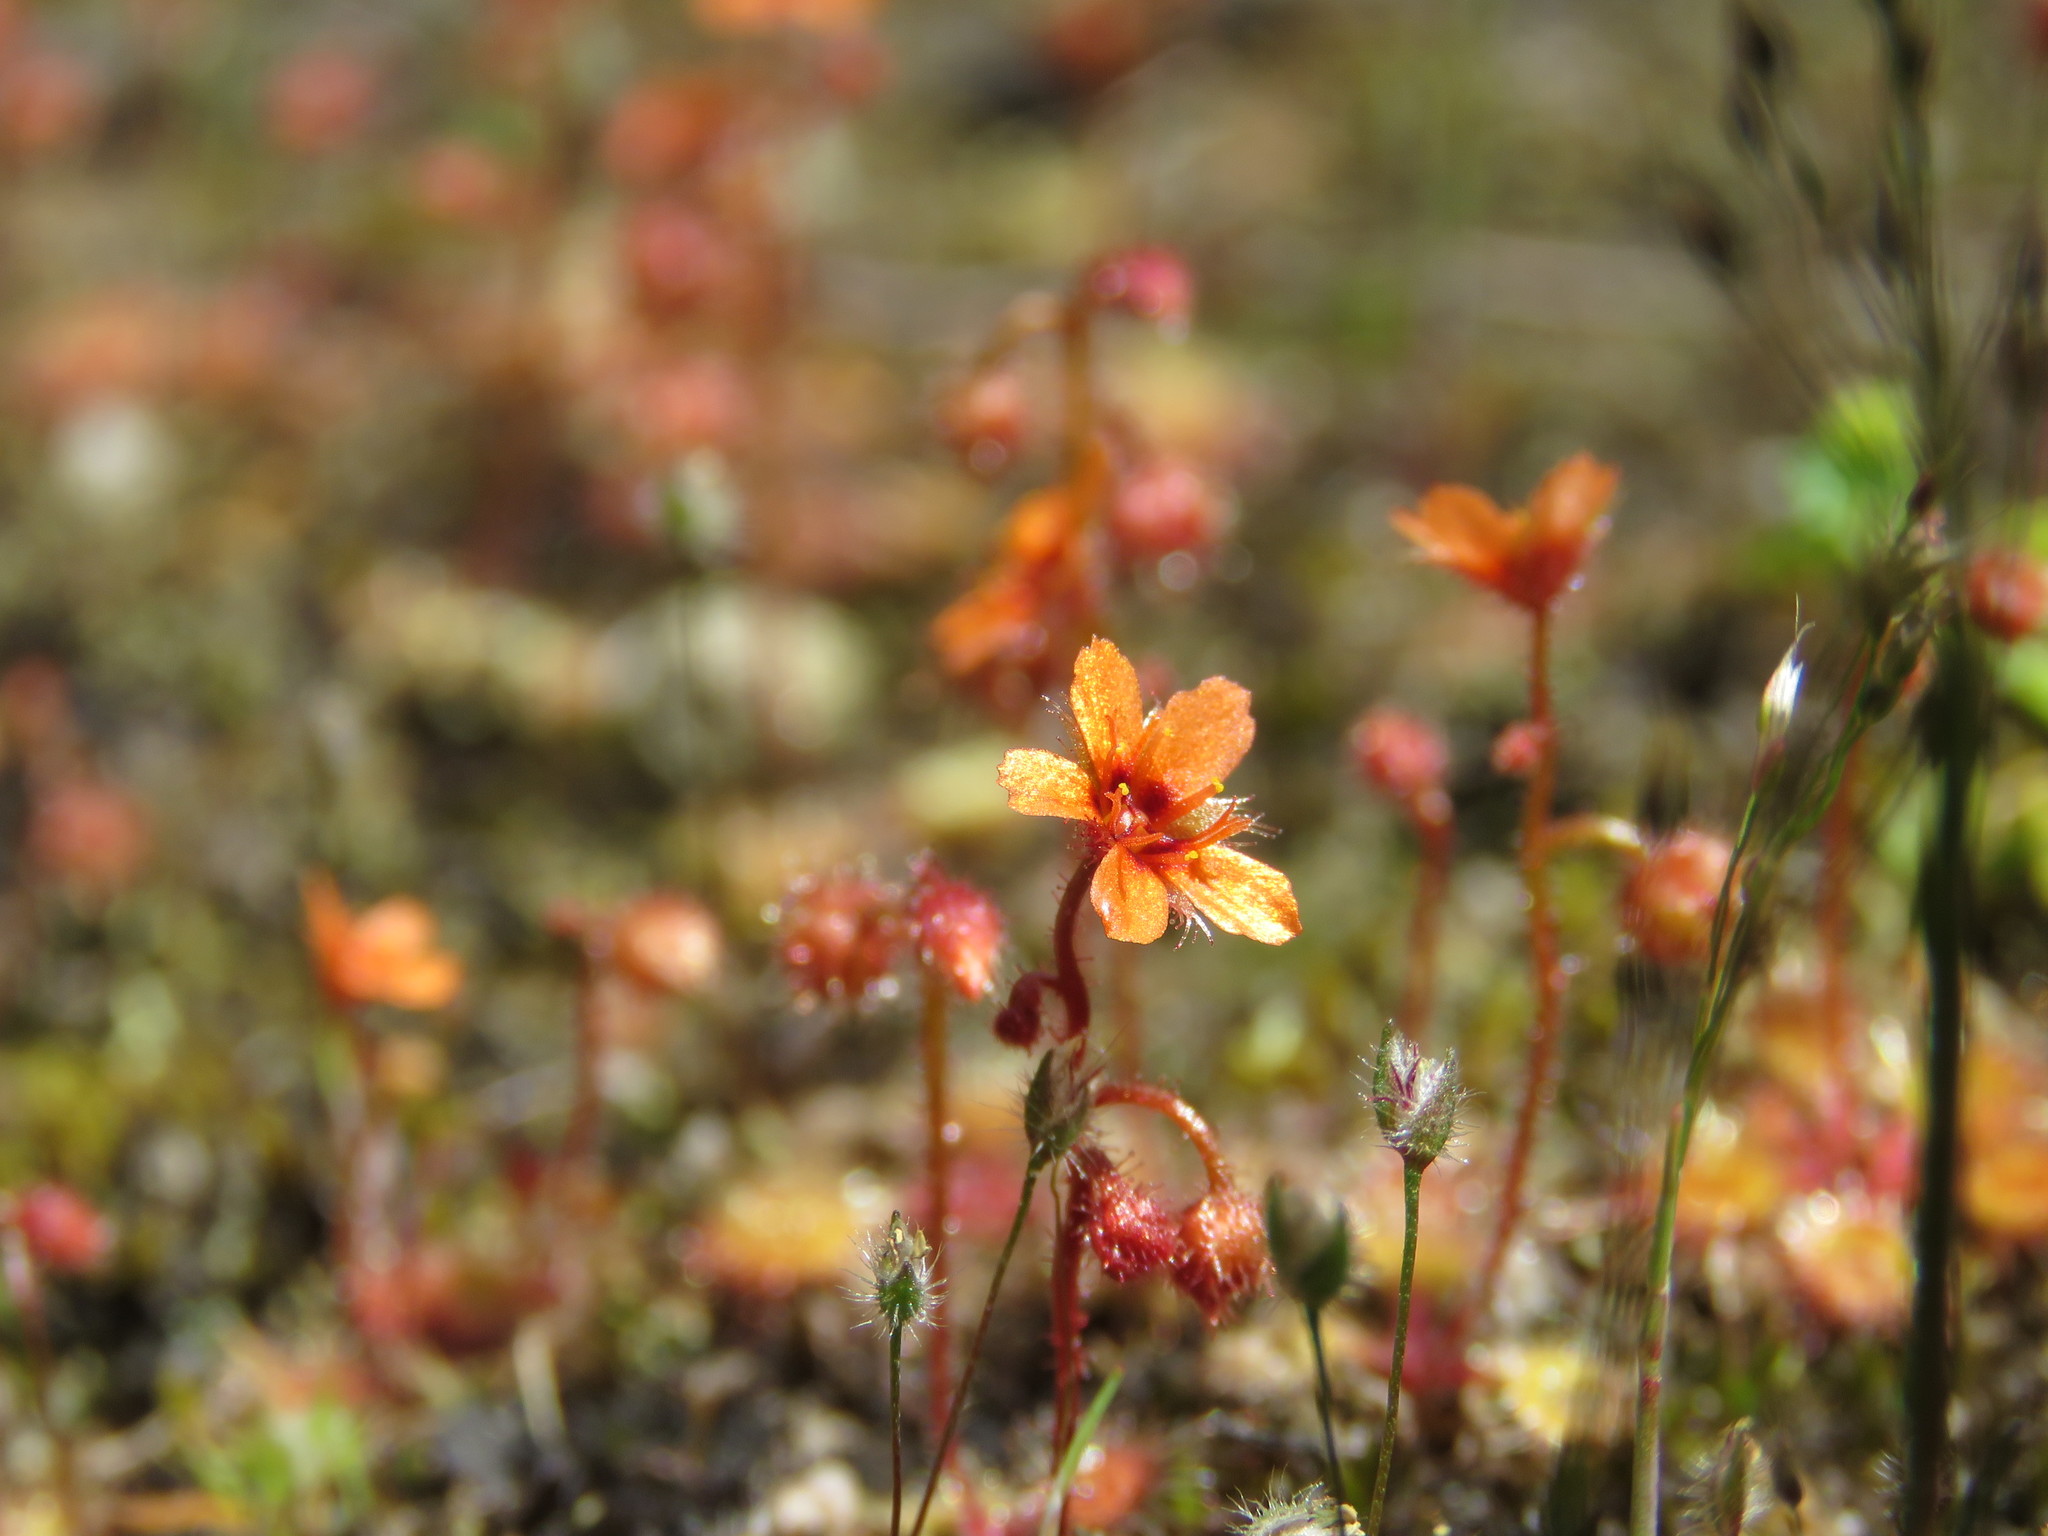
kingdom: Plantae
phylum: Tracheophyta
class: Magnoliopsida
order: Caryophyllales
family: Droseraceae
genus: Drosera
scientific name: Drosera glanduligera
